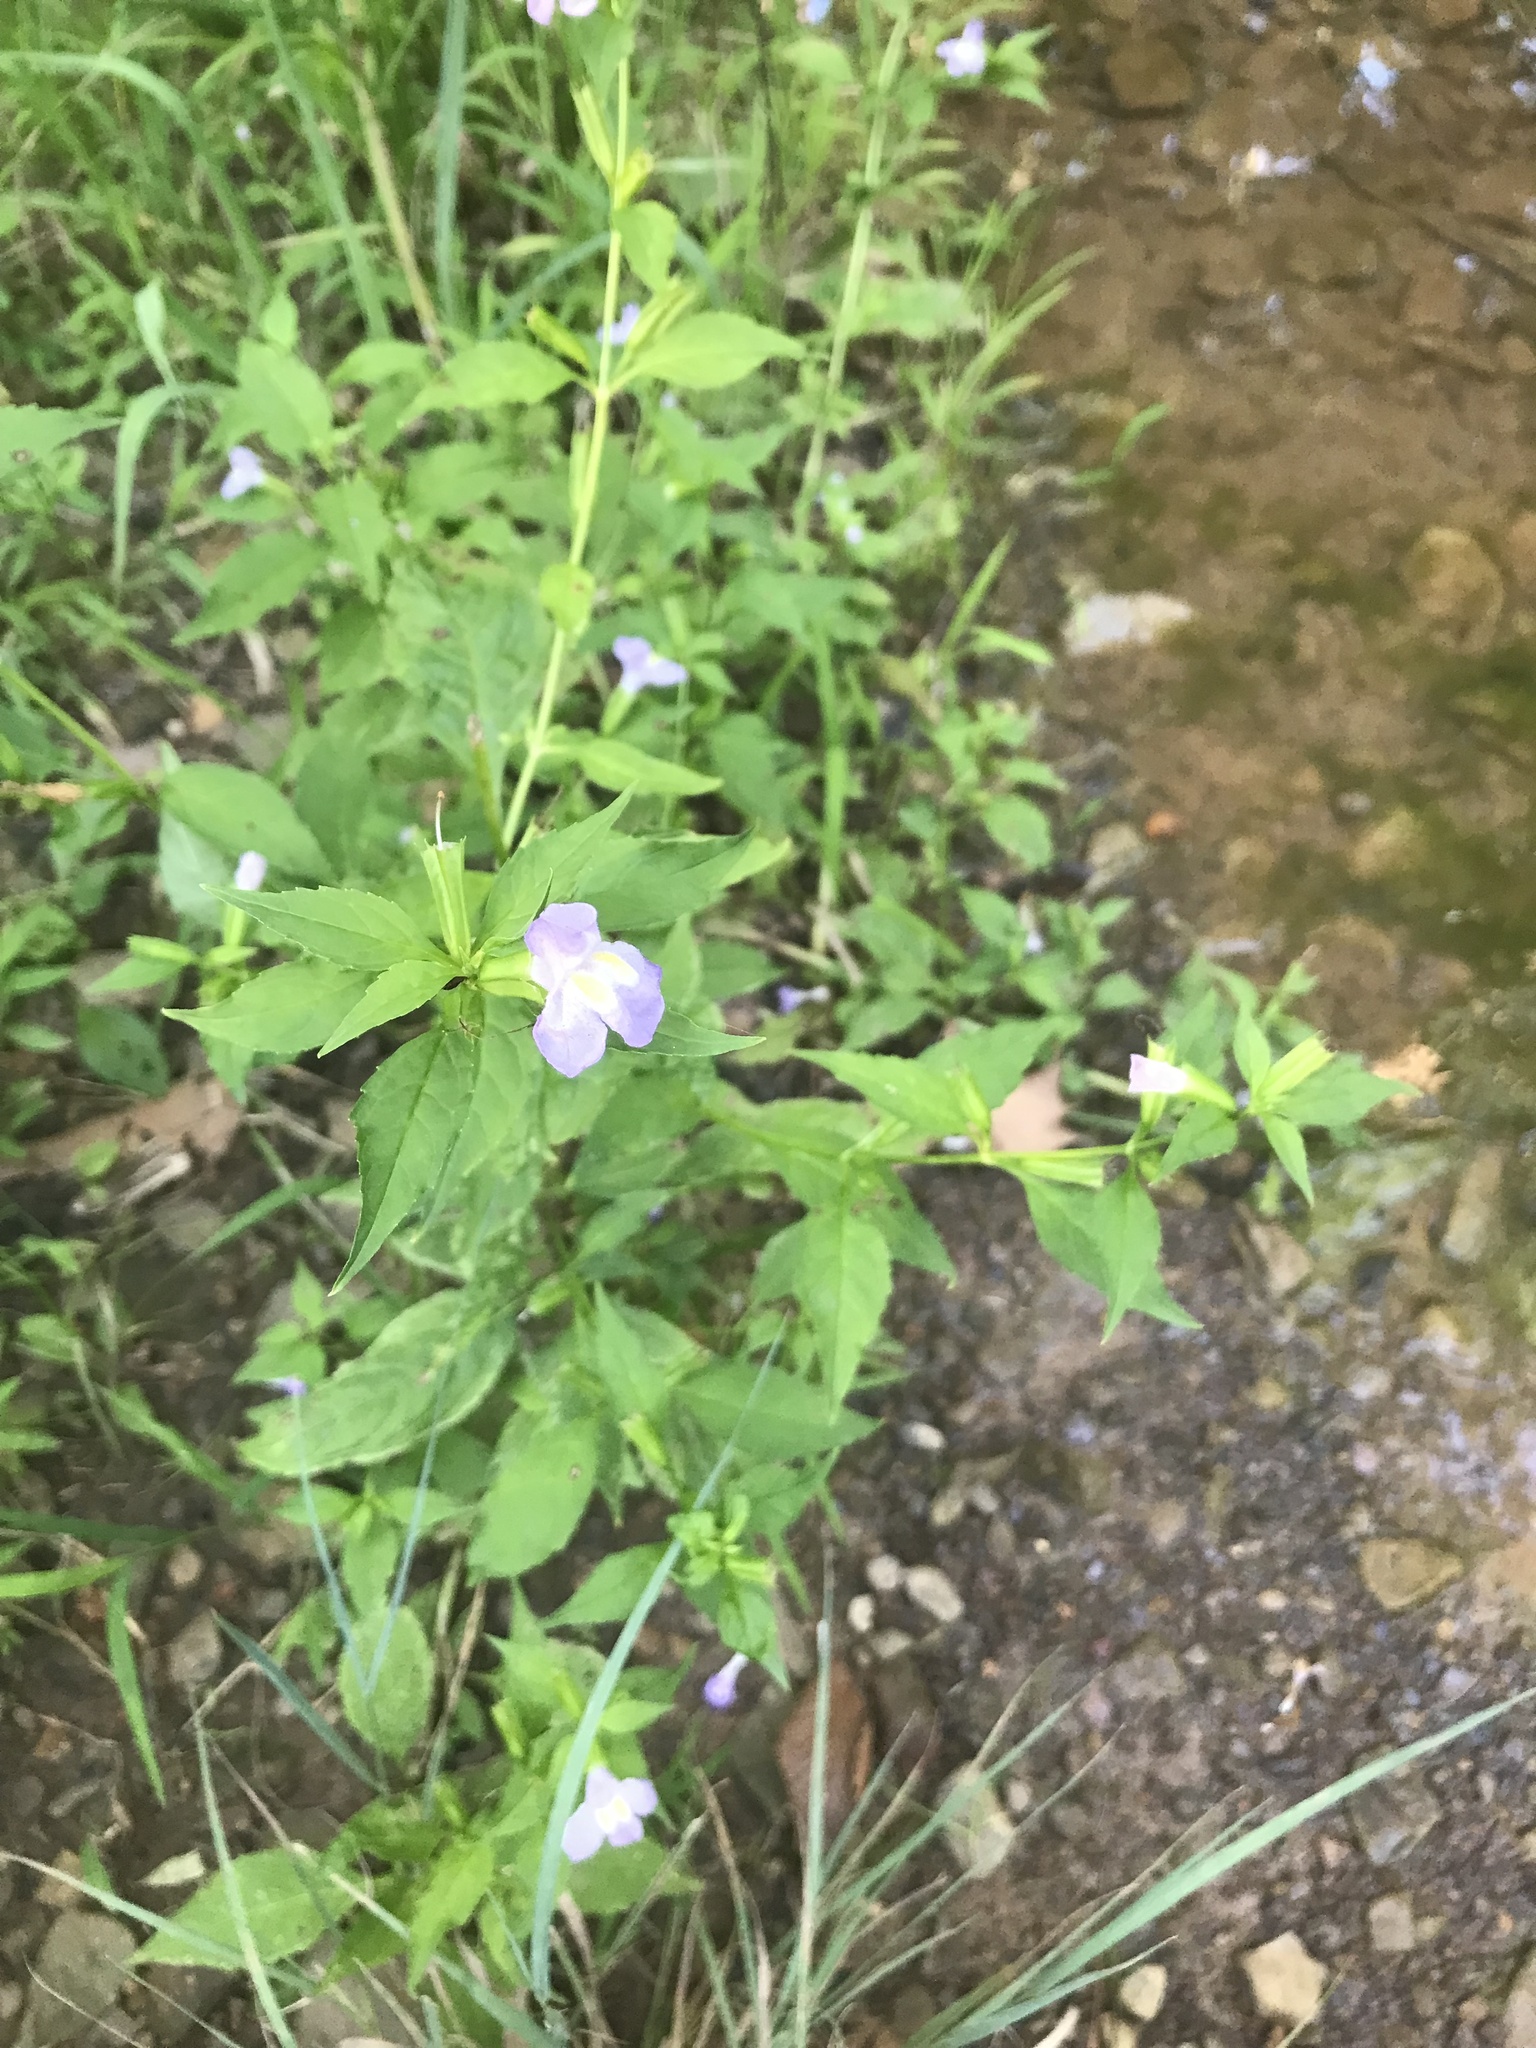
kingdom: Plantae
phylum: Tracheophyta
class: Magnoliopsida
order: Lamiales
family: Phrymaceae
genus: Mimulus
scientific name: Mimulus alatus
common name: Sharp-wing monkey-flower
